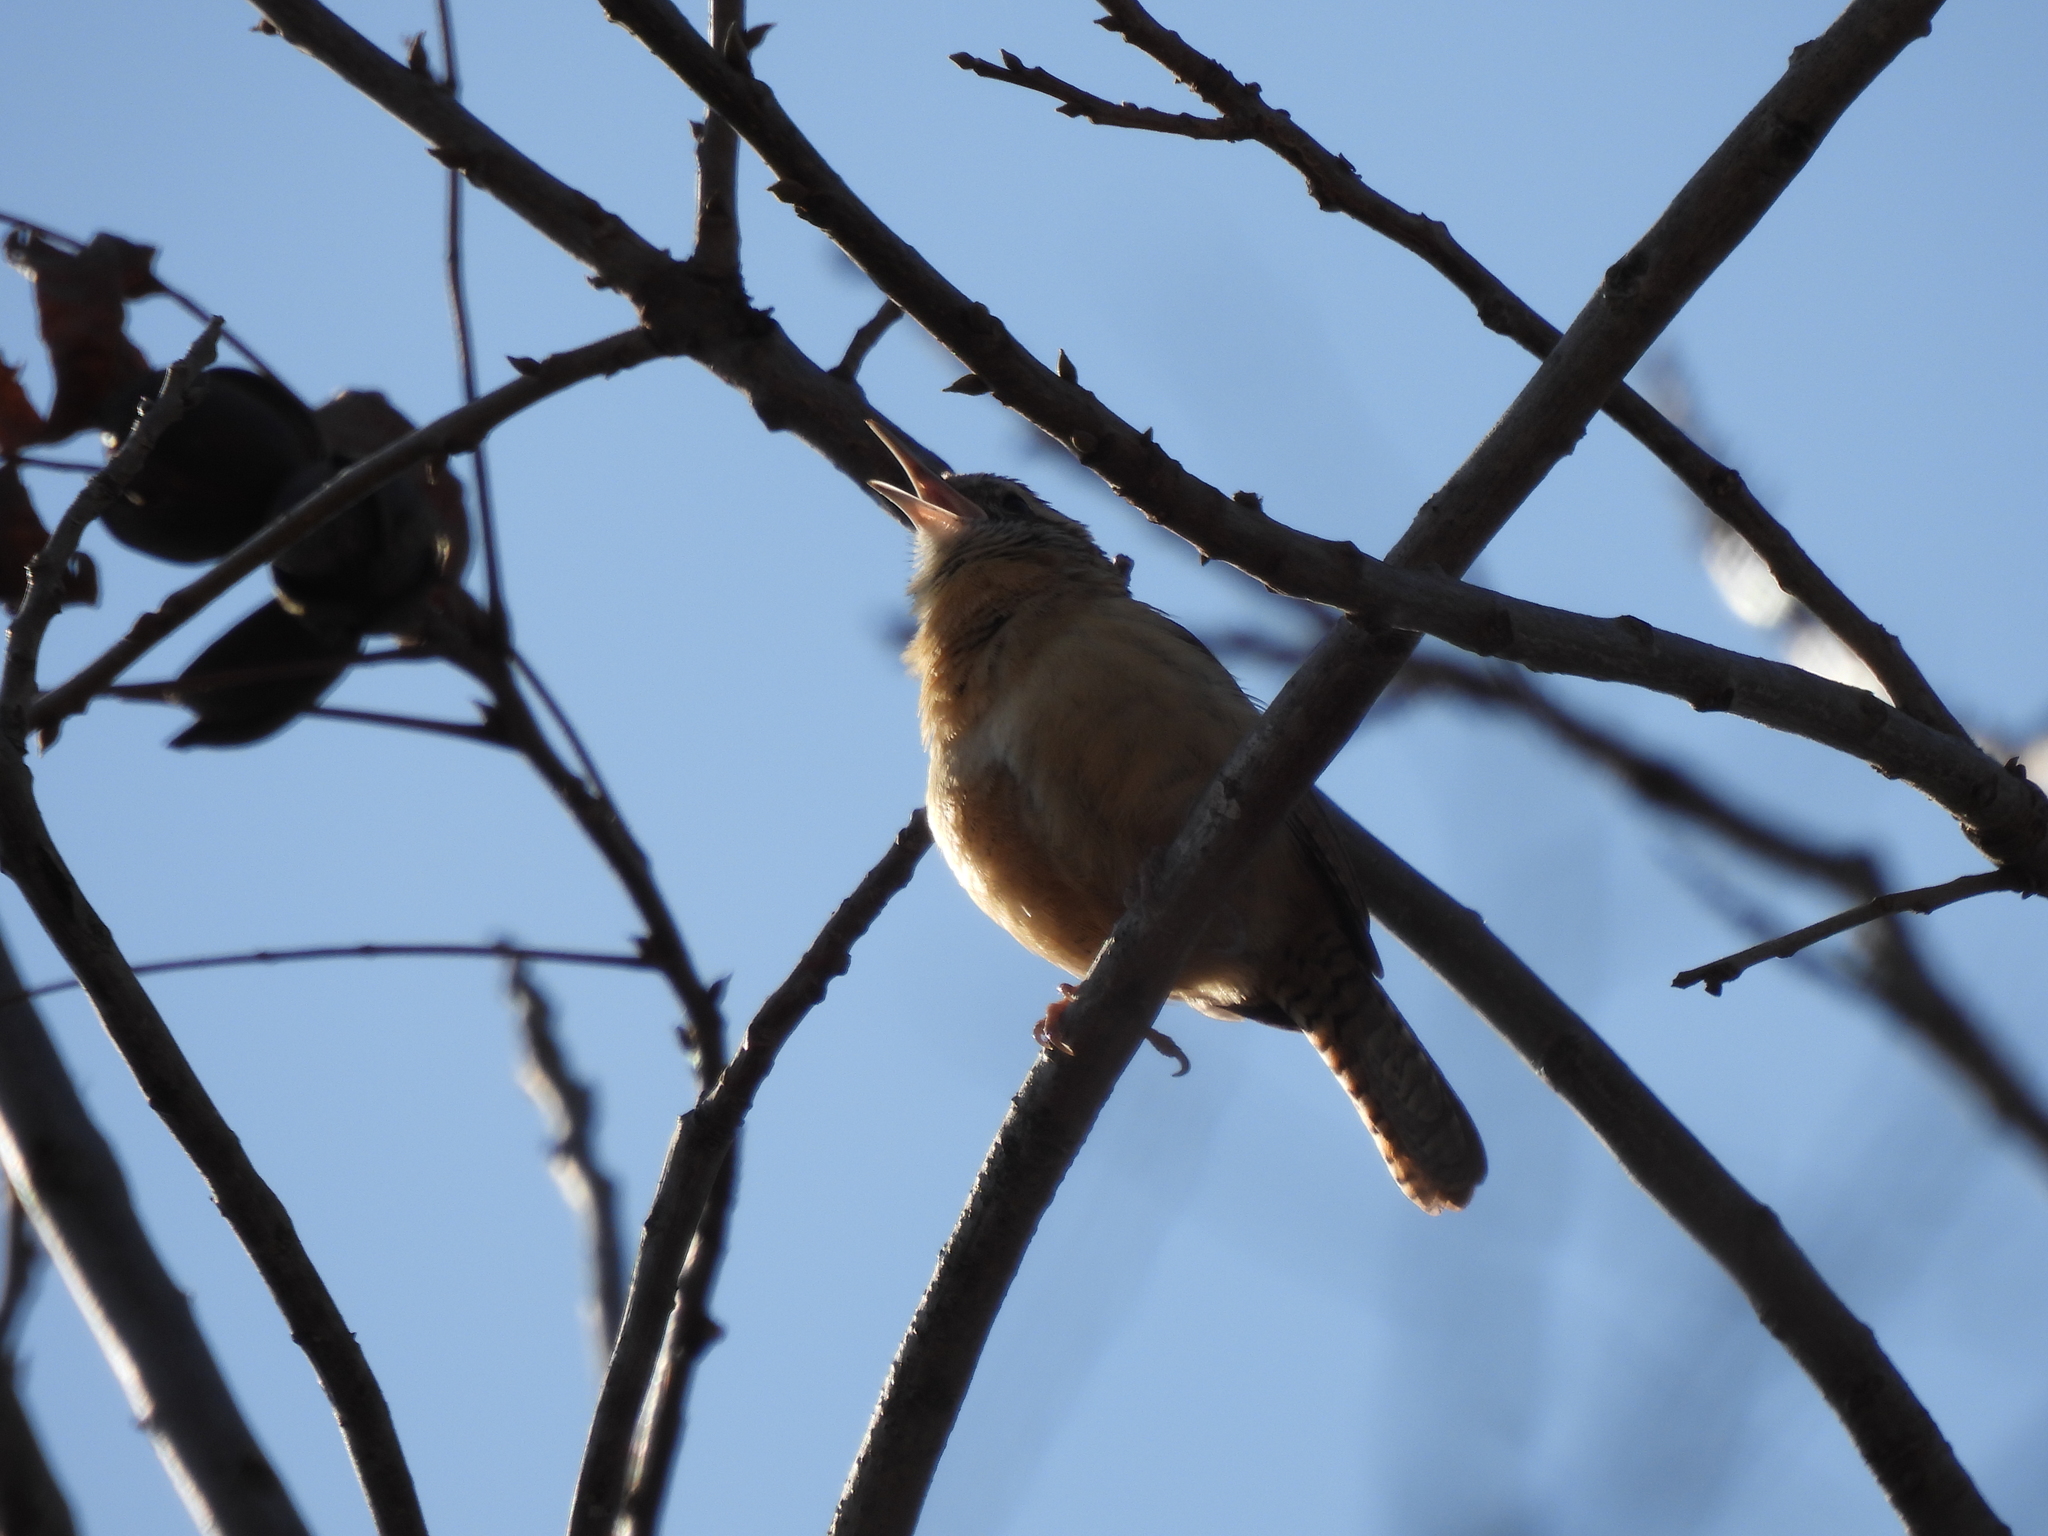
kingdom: Animalia
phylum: Chordata
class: Aves
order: Passeriformes
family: Troglodytidae
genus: Thryothorus
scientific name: Thryothorus ludovicianus
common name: Carolina wren
